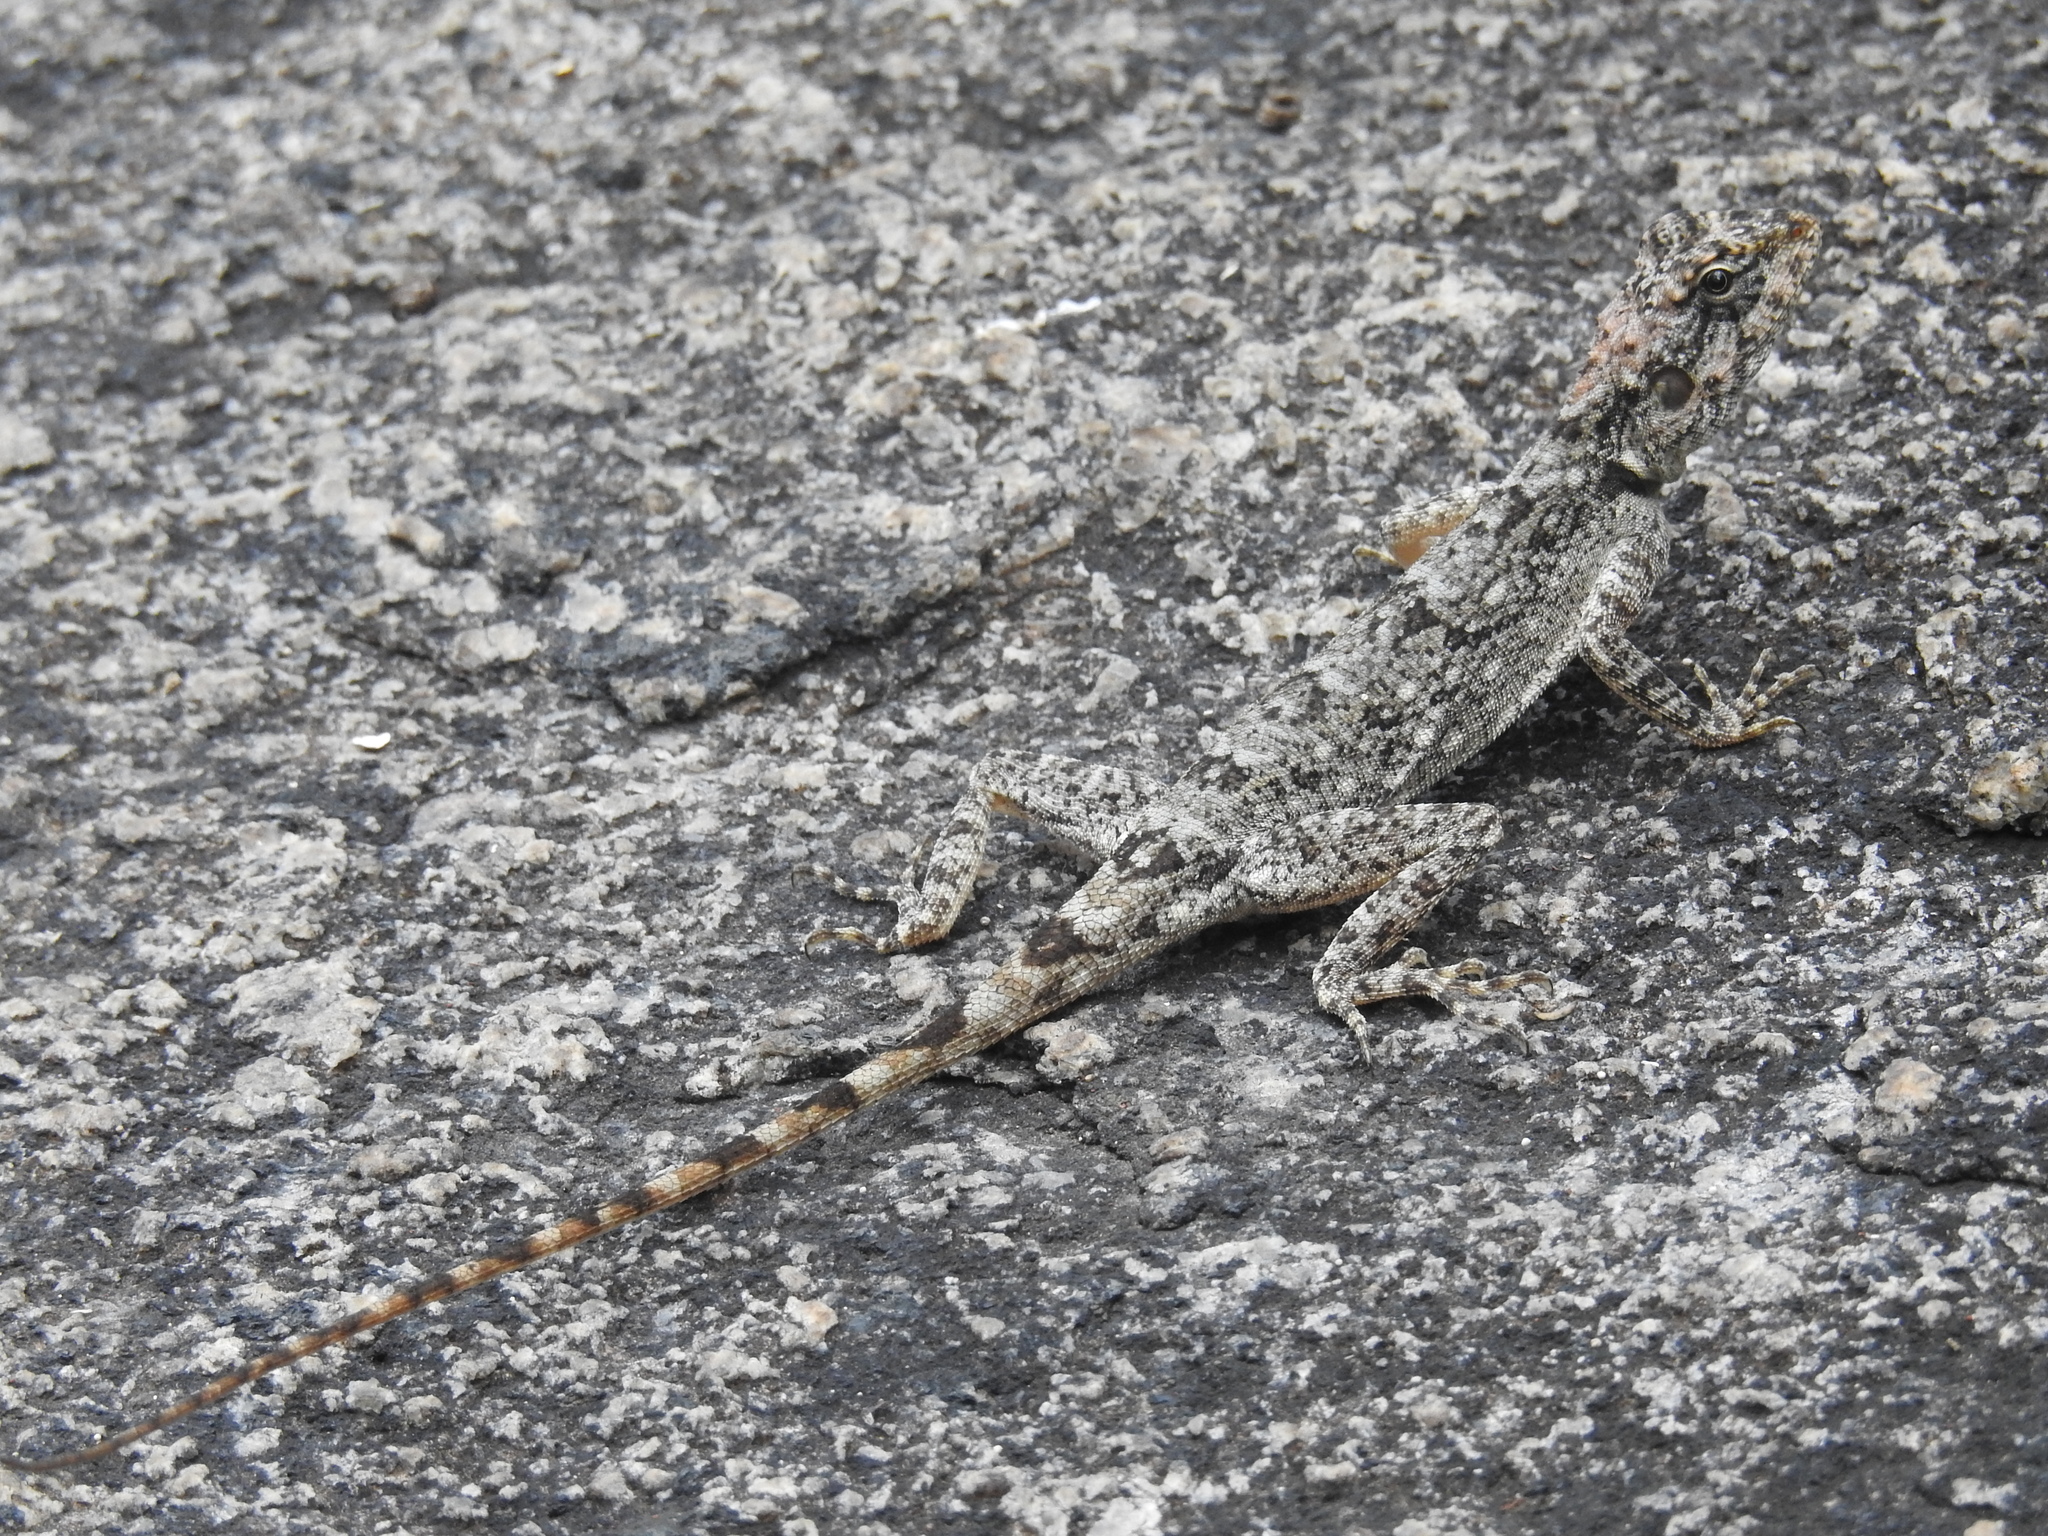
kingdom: Animalia
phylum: Chordata
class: Squamata
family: Agamidae
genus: Psammophilus
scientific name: Psammophilus dorsalis
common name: South indian rock agama
